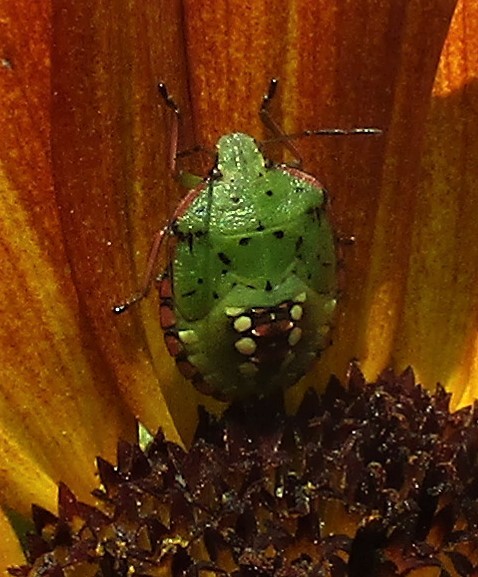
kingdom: Animalia
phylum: Arthropoda
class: Insecta
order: Hemiptera
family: Pentatomidae
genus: Nezara
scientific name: Nezara viridula
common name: Southern green stink bug
